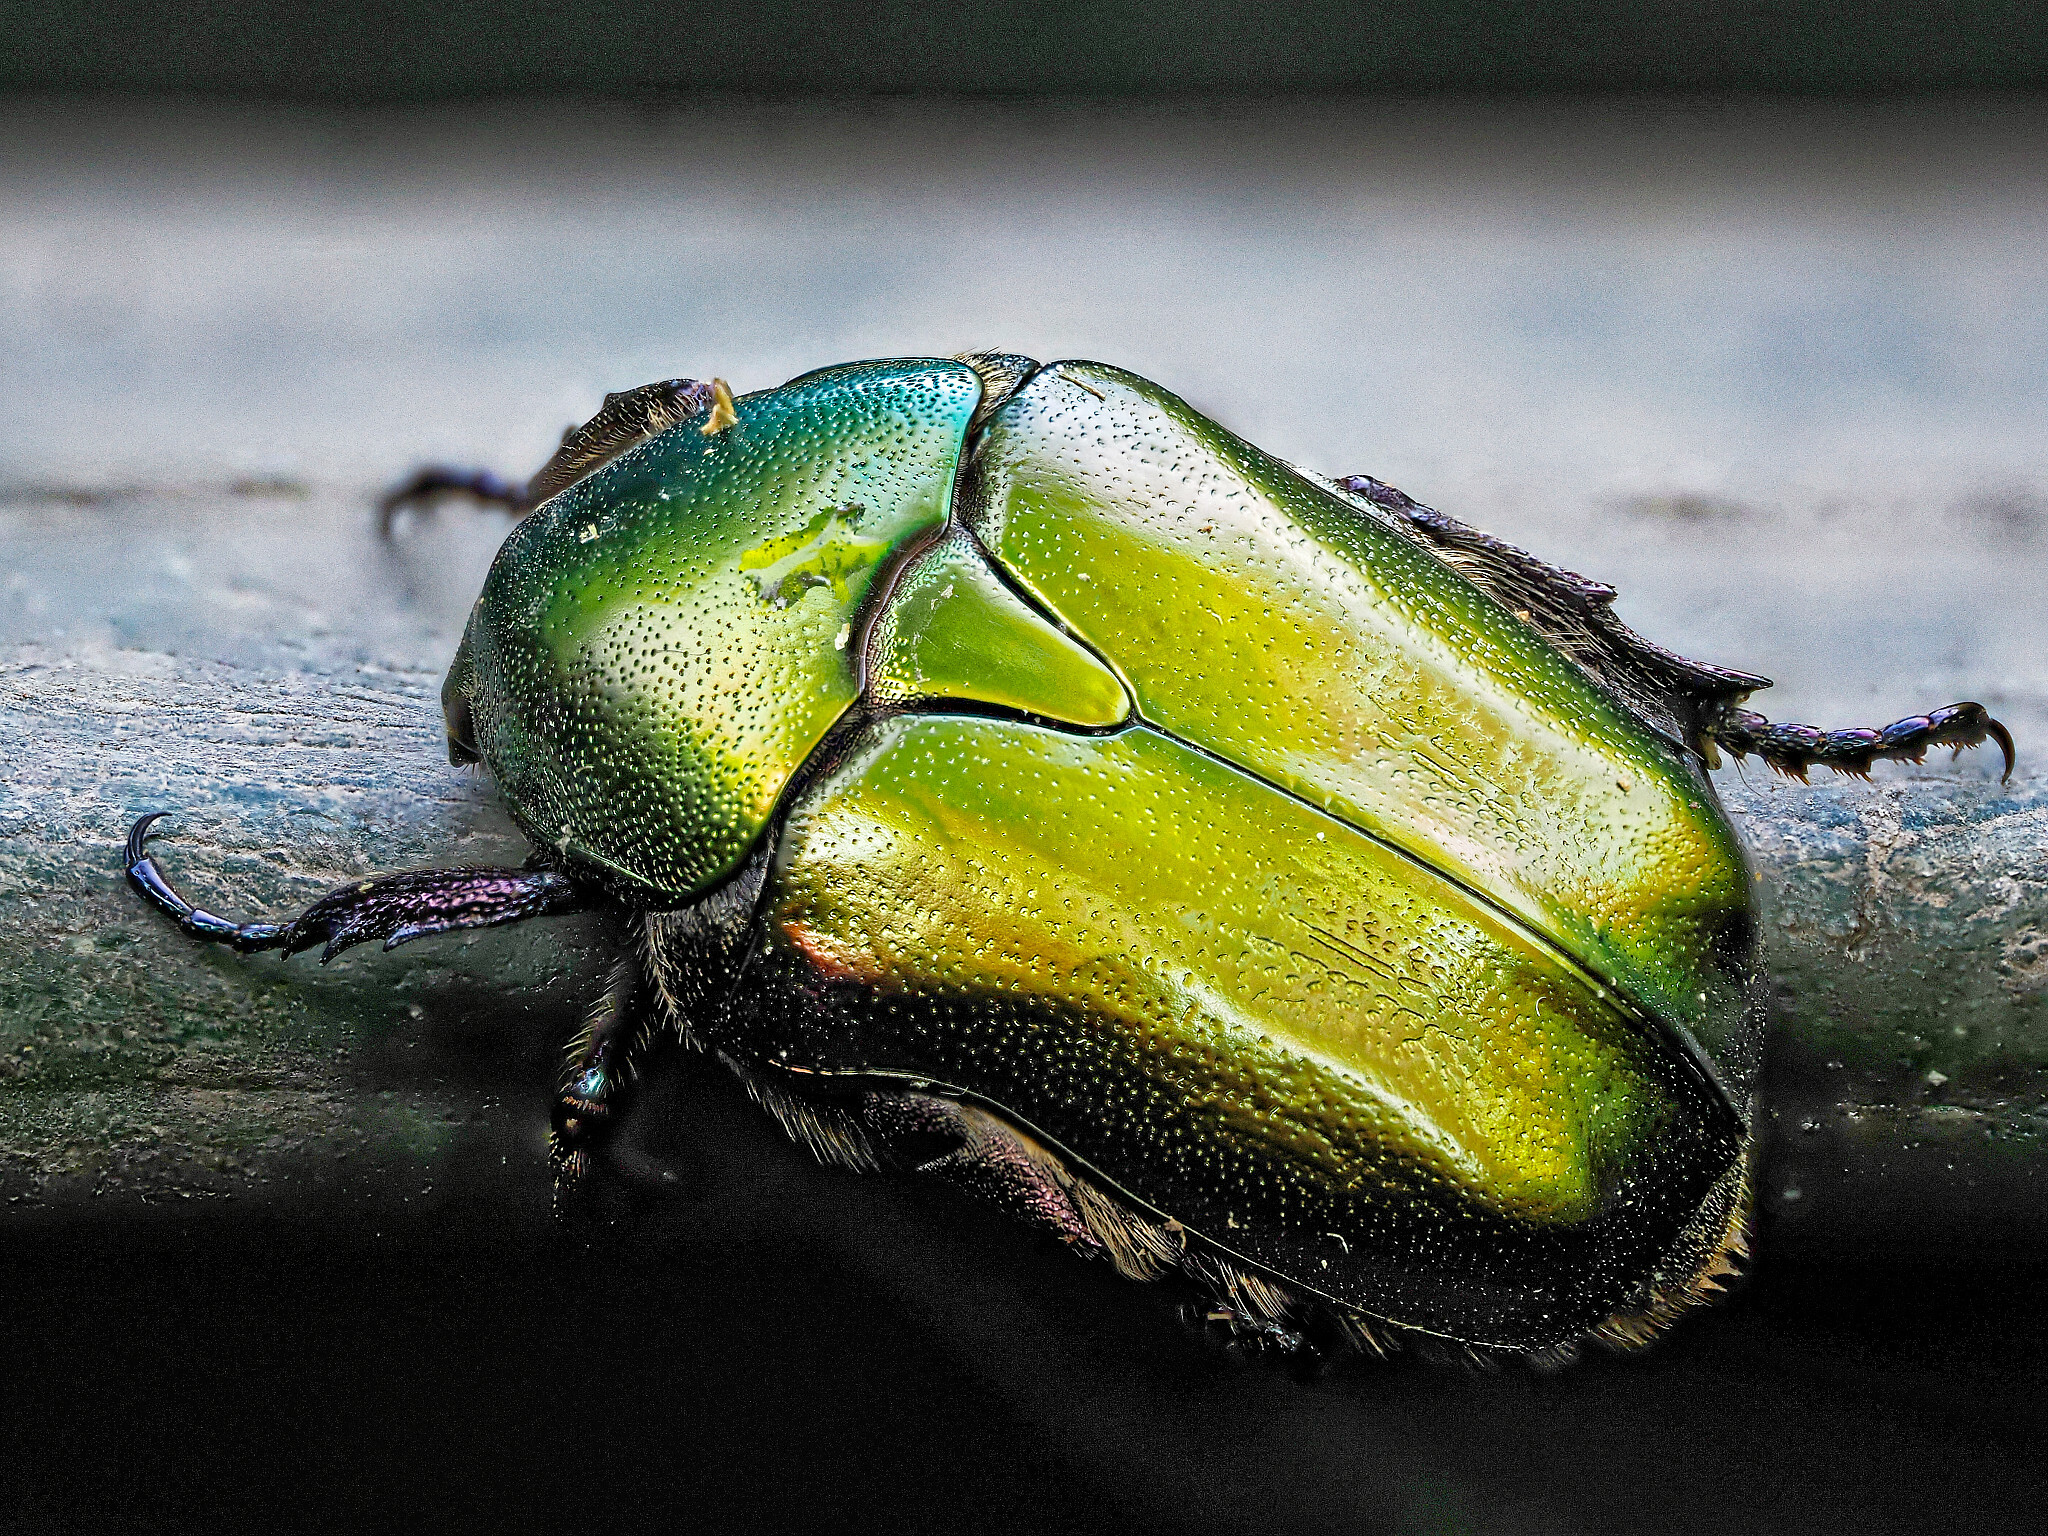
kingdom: Animalia
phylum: Arthropoda
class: Insecta
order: Coleoptera
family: Scarabaeidae
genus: Protaetia
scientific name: Protaetia cuprea
